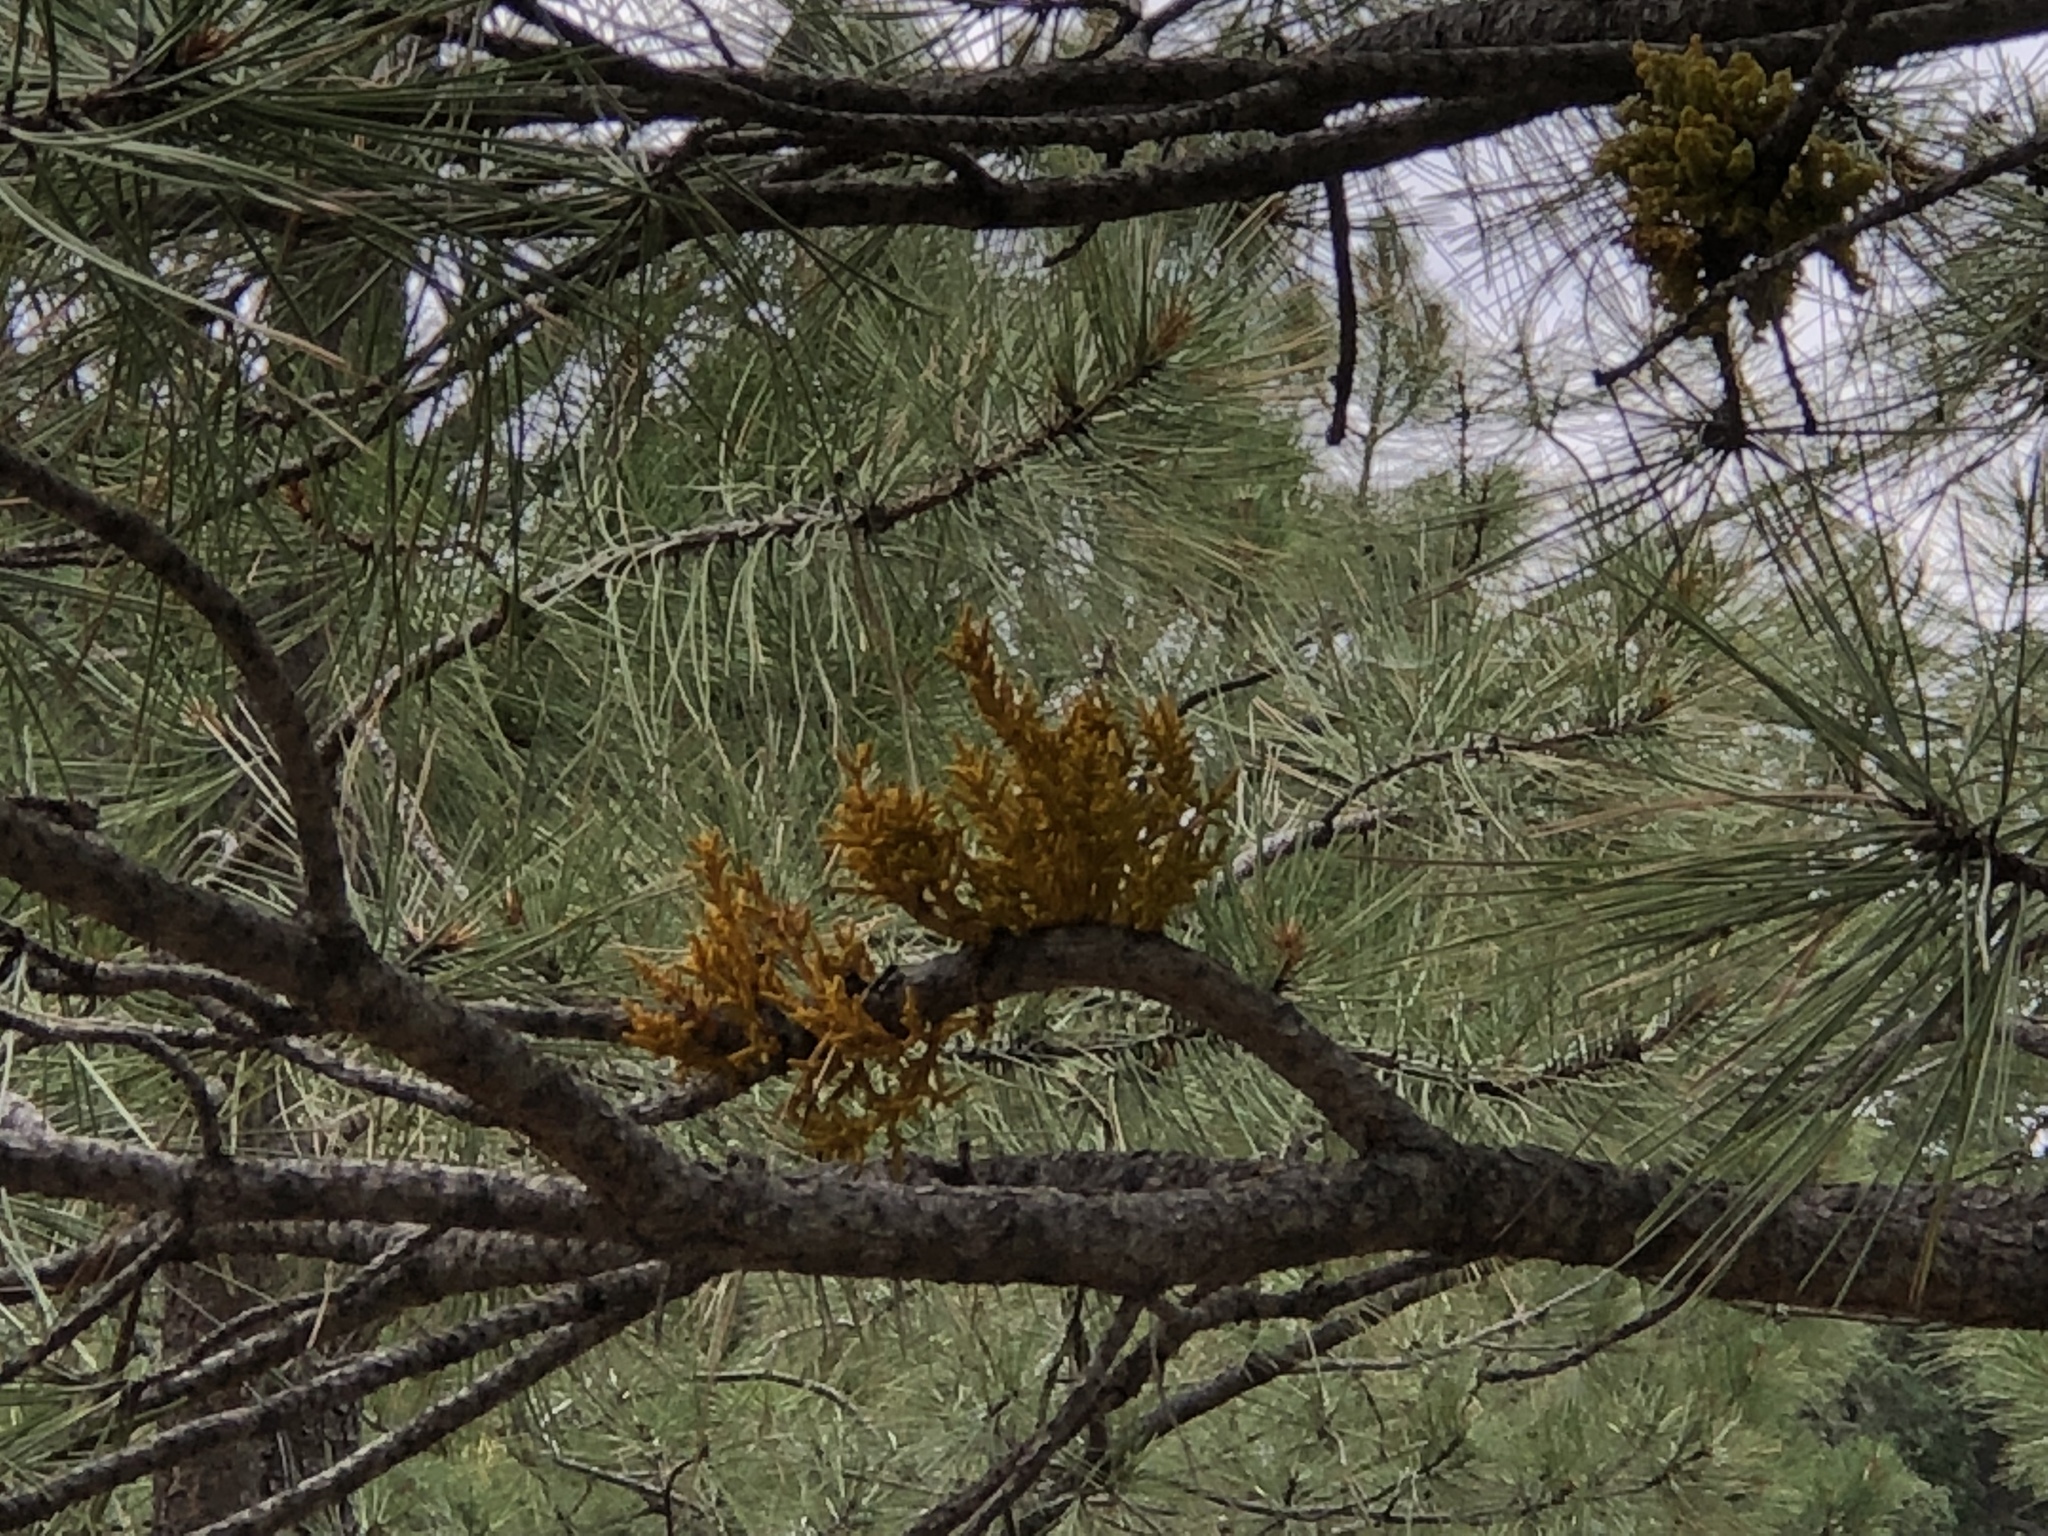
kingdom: Plantae
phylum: Tracheophyta
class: Magnoliopsida
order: Santalales
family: Viscaceae
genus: Arceuthobium
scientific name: Arceuthobium vaginatum
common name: Southwestern dwarf-mistletoe
